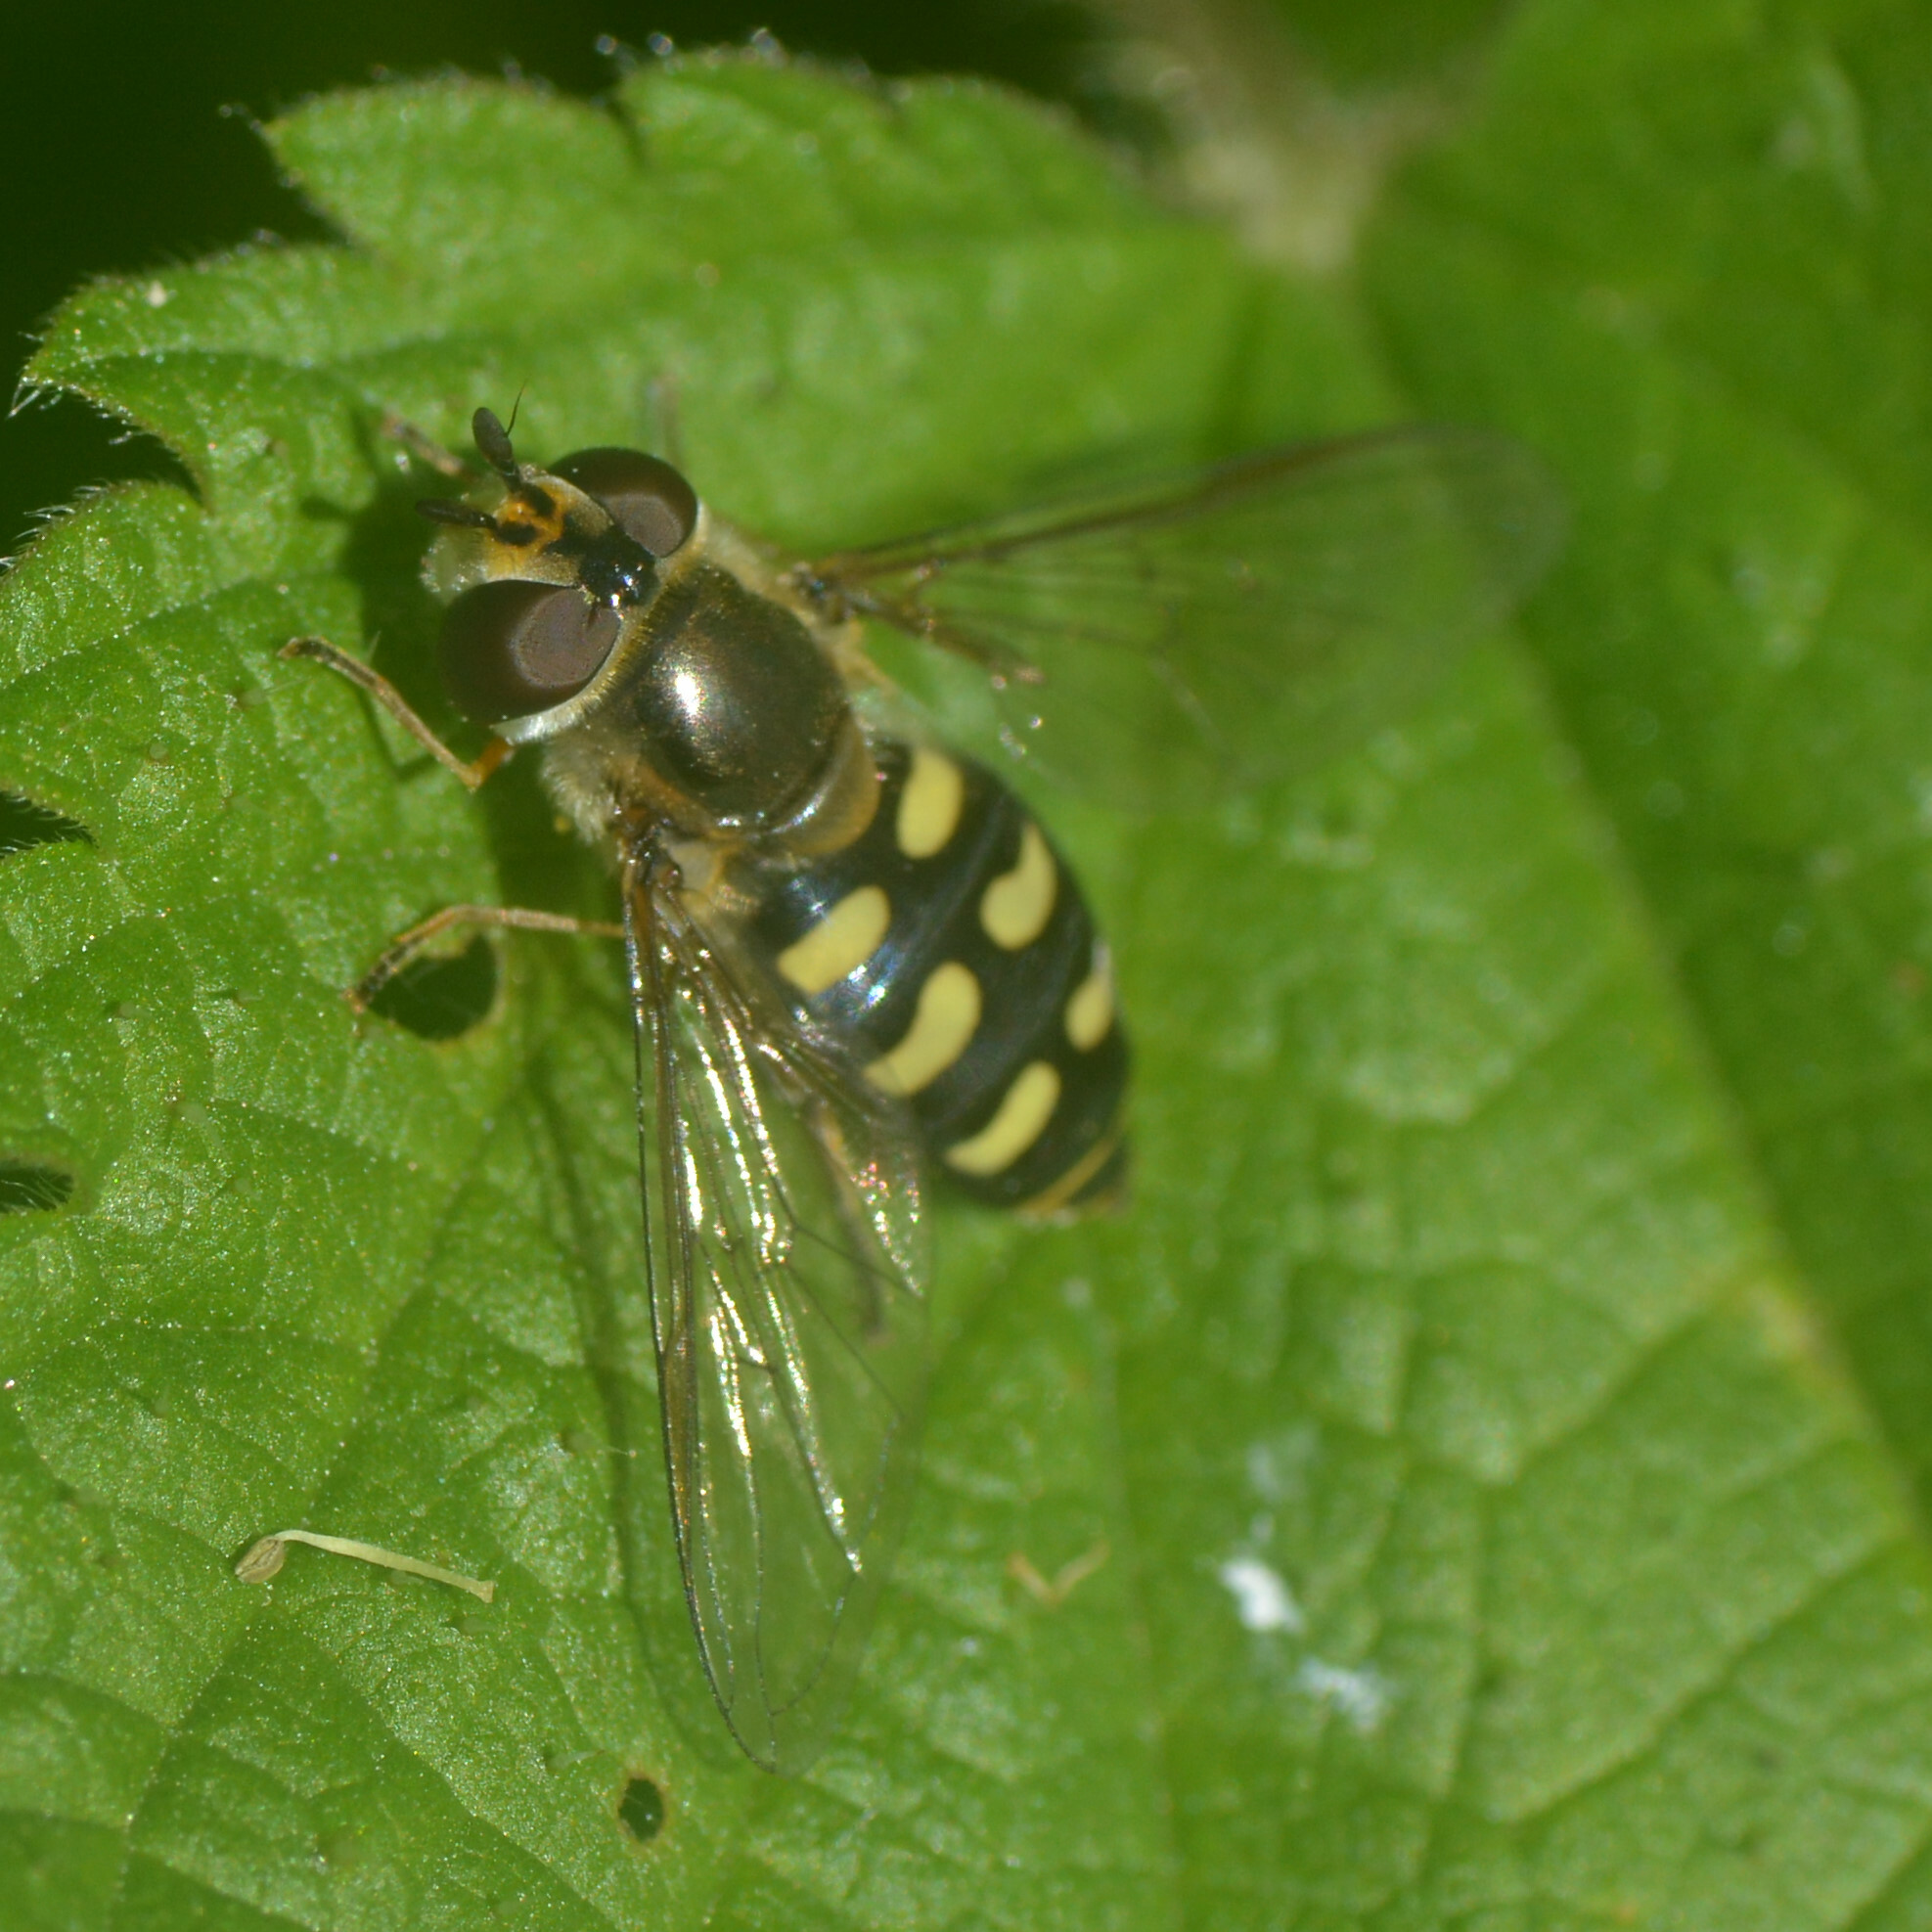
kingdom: Animalia
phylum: Arthropoda
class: Insecta
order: Diptera
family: Syrphidae
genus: Eupeodes
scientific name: Eupeodes luniger
